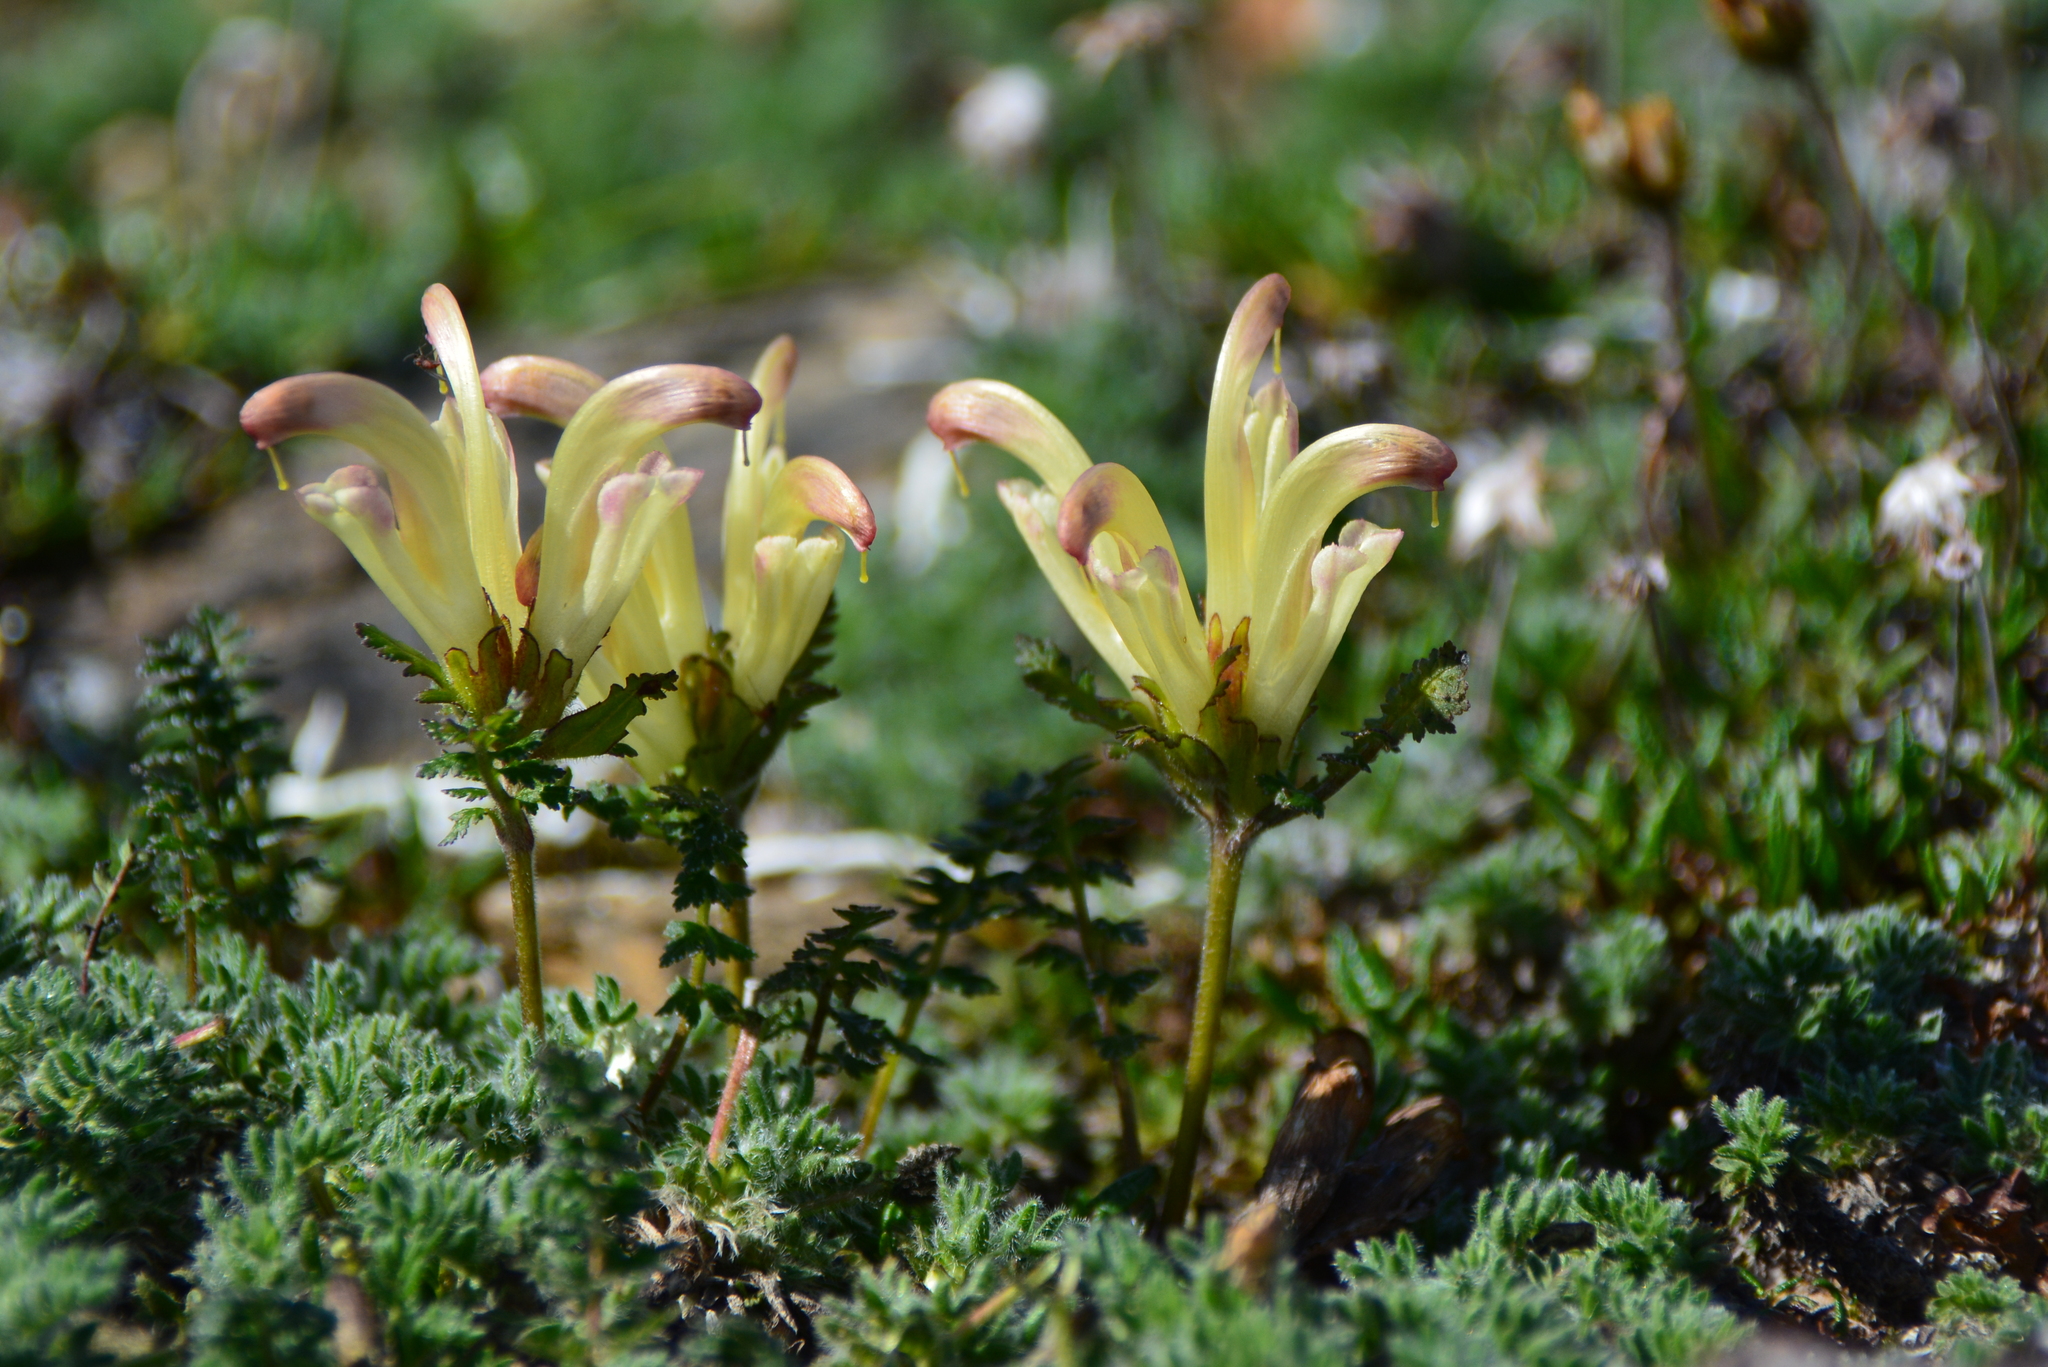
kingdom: Plantae
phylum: Tracheophyta
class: Magnoliopsida
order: Lamiales
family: Orobanchaceae
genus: Pedicularis
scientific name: Pedicularis capitata
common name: Capitate lousewort
